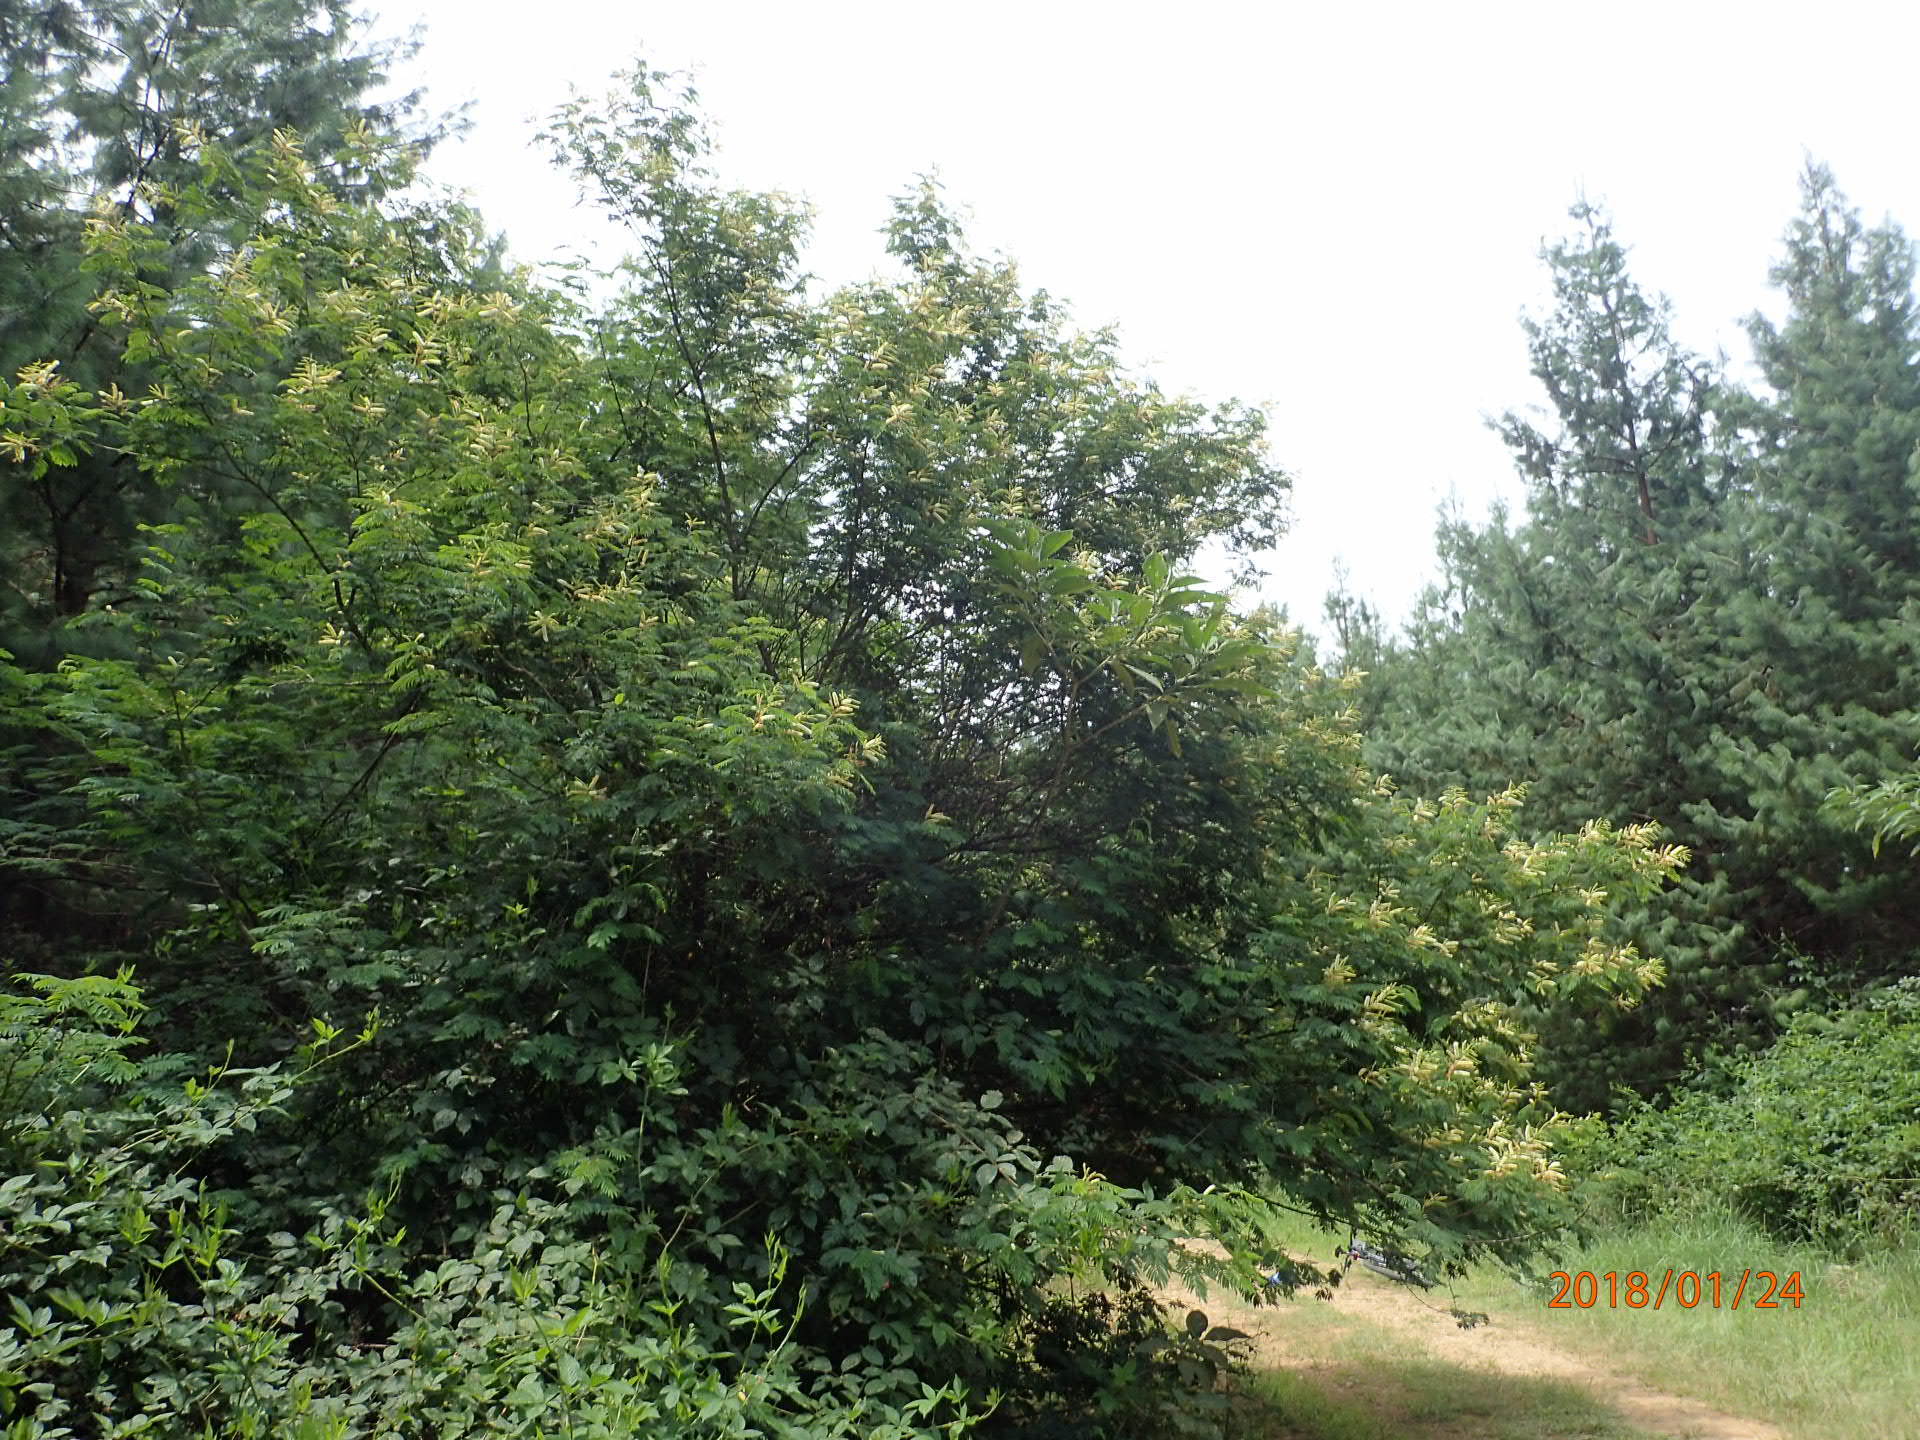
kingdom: Plantae
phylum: Tracheophyta
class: Magnoliopsida
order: Fabales
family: Fabaceae
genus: Senegalia
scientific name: Senegalia caffra
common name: Cat thorn
